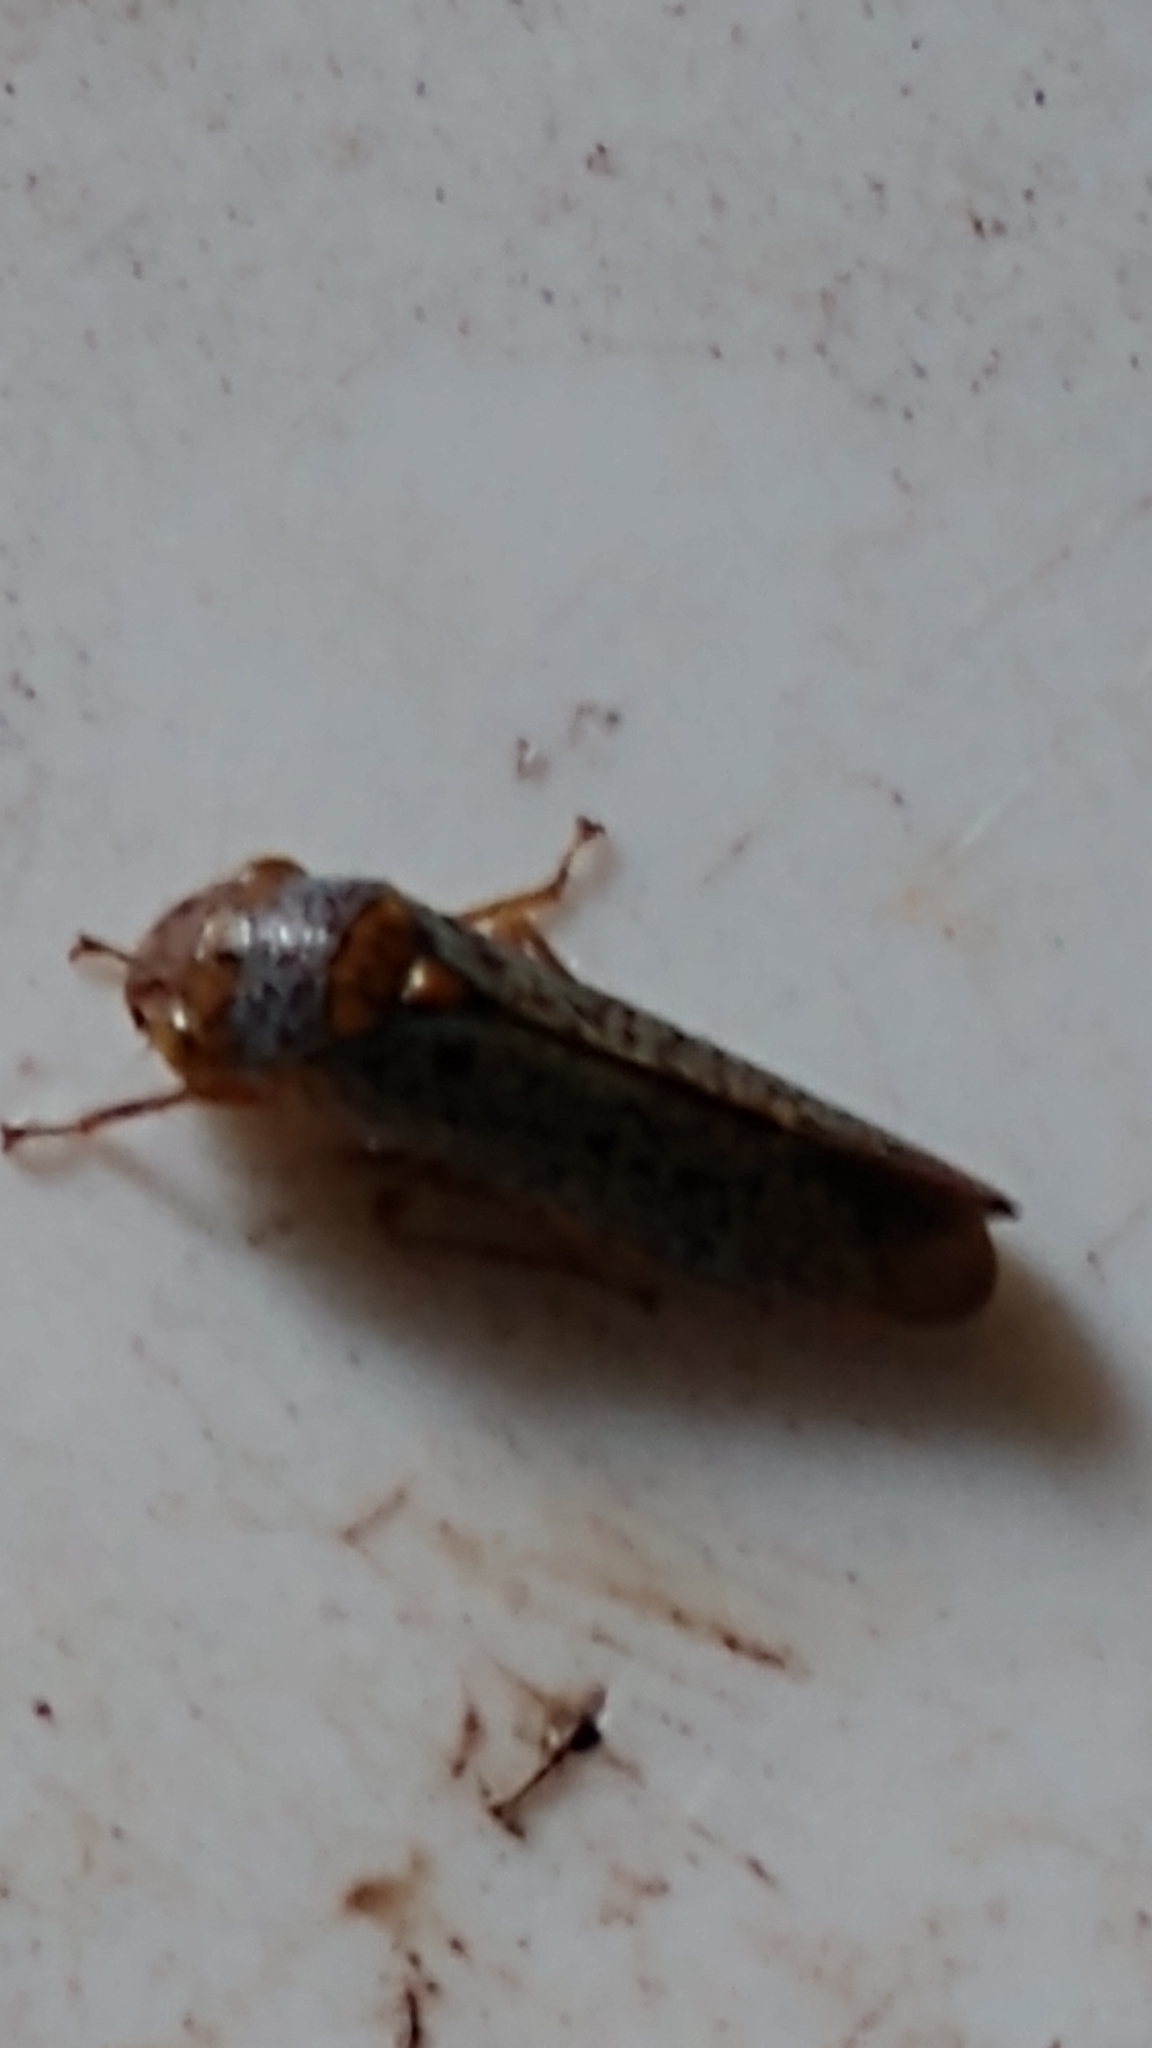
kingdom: Animalia
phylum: Arthropoda
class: Insecta
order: Hemiptera
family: Cicadellidae
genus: Oncometopia
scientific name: Oncometopia orbona
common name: Broad-headed sharpshooter
